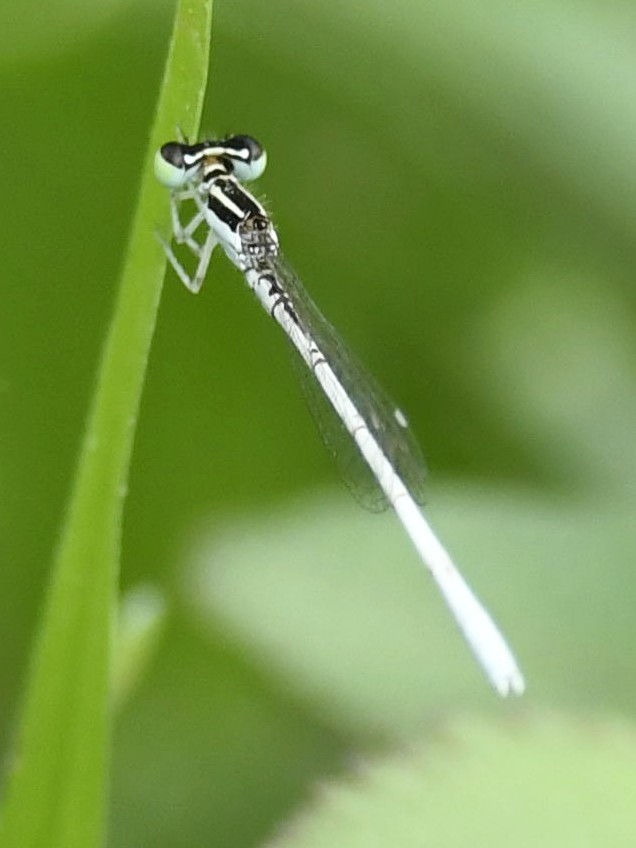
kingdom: Animalia
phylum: Arthropoda
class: Insecta
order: Odonata
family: Coenagrionidae
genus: Agriocnemis
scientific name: Agriocnemis lacteola
